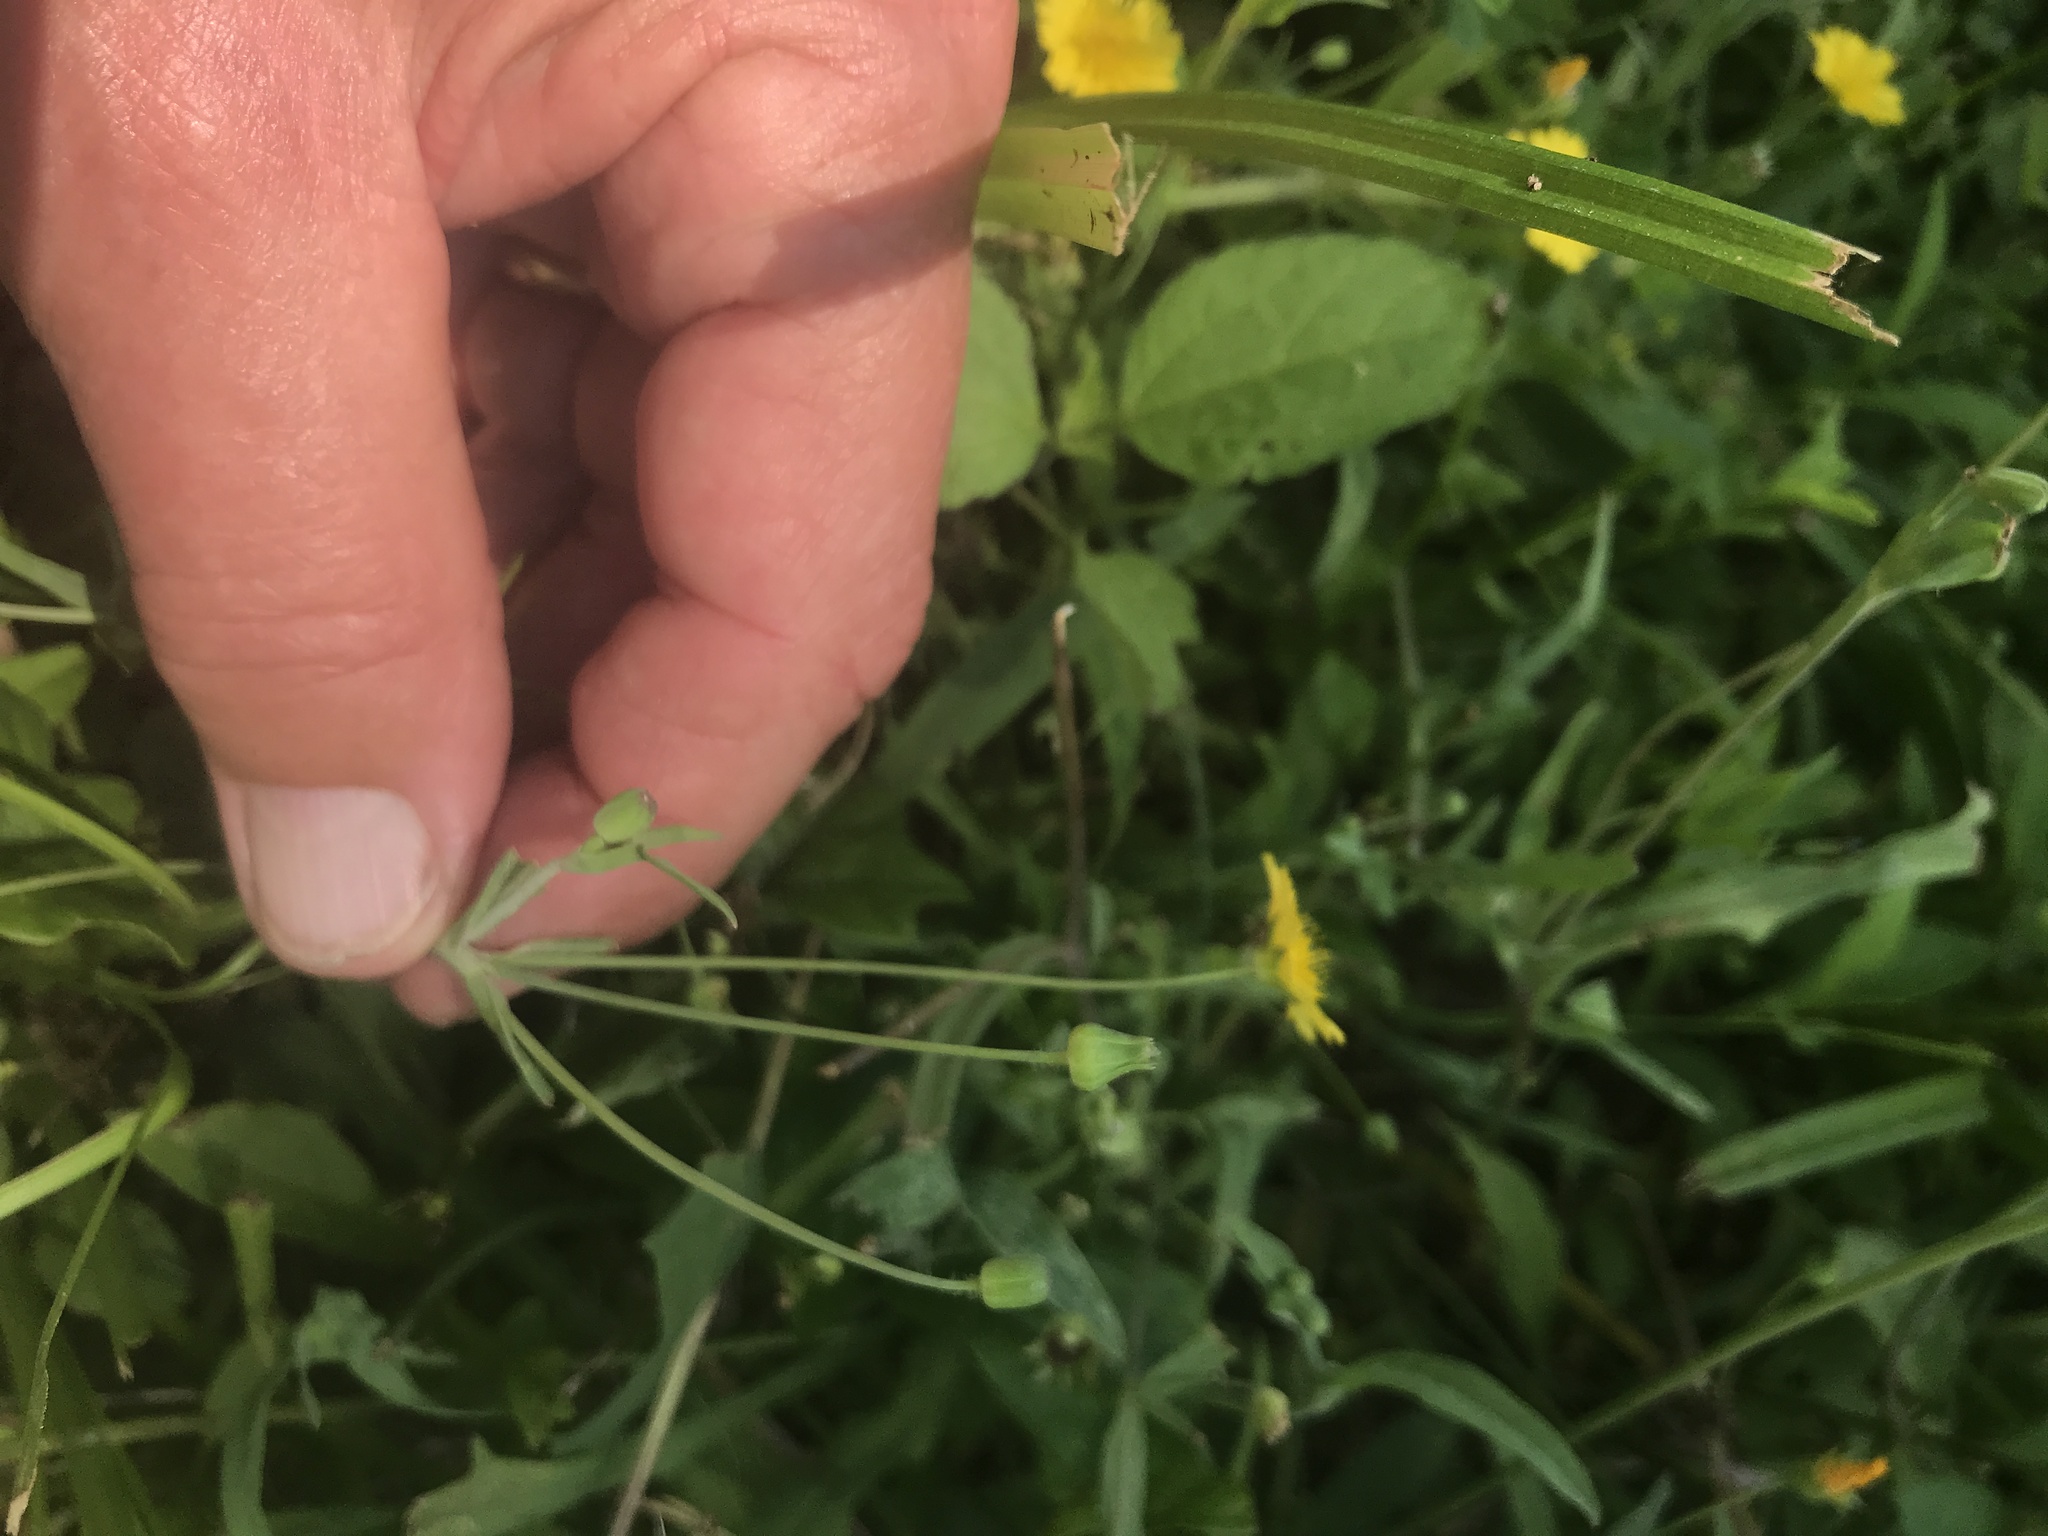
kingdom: Plantae
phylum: Tracheophyta
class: Magnoliopsida
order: Asterales
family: Asteraceae
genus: Krigia
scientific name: Krigia cespitosa
